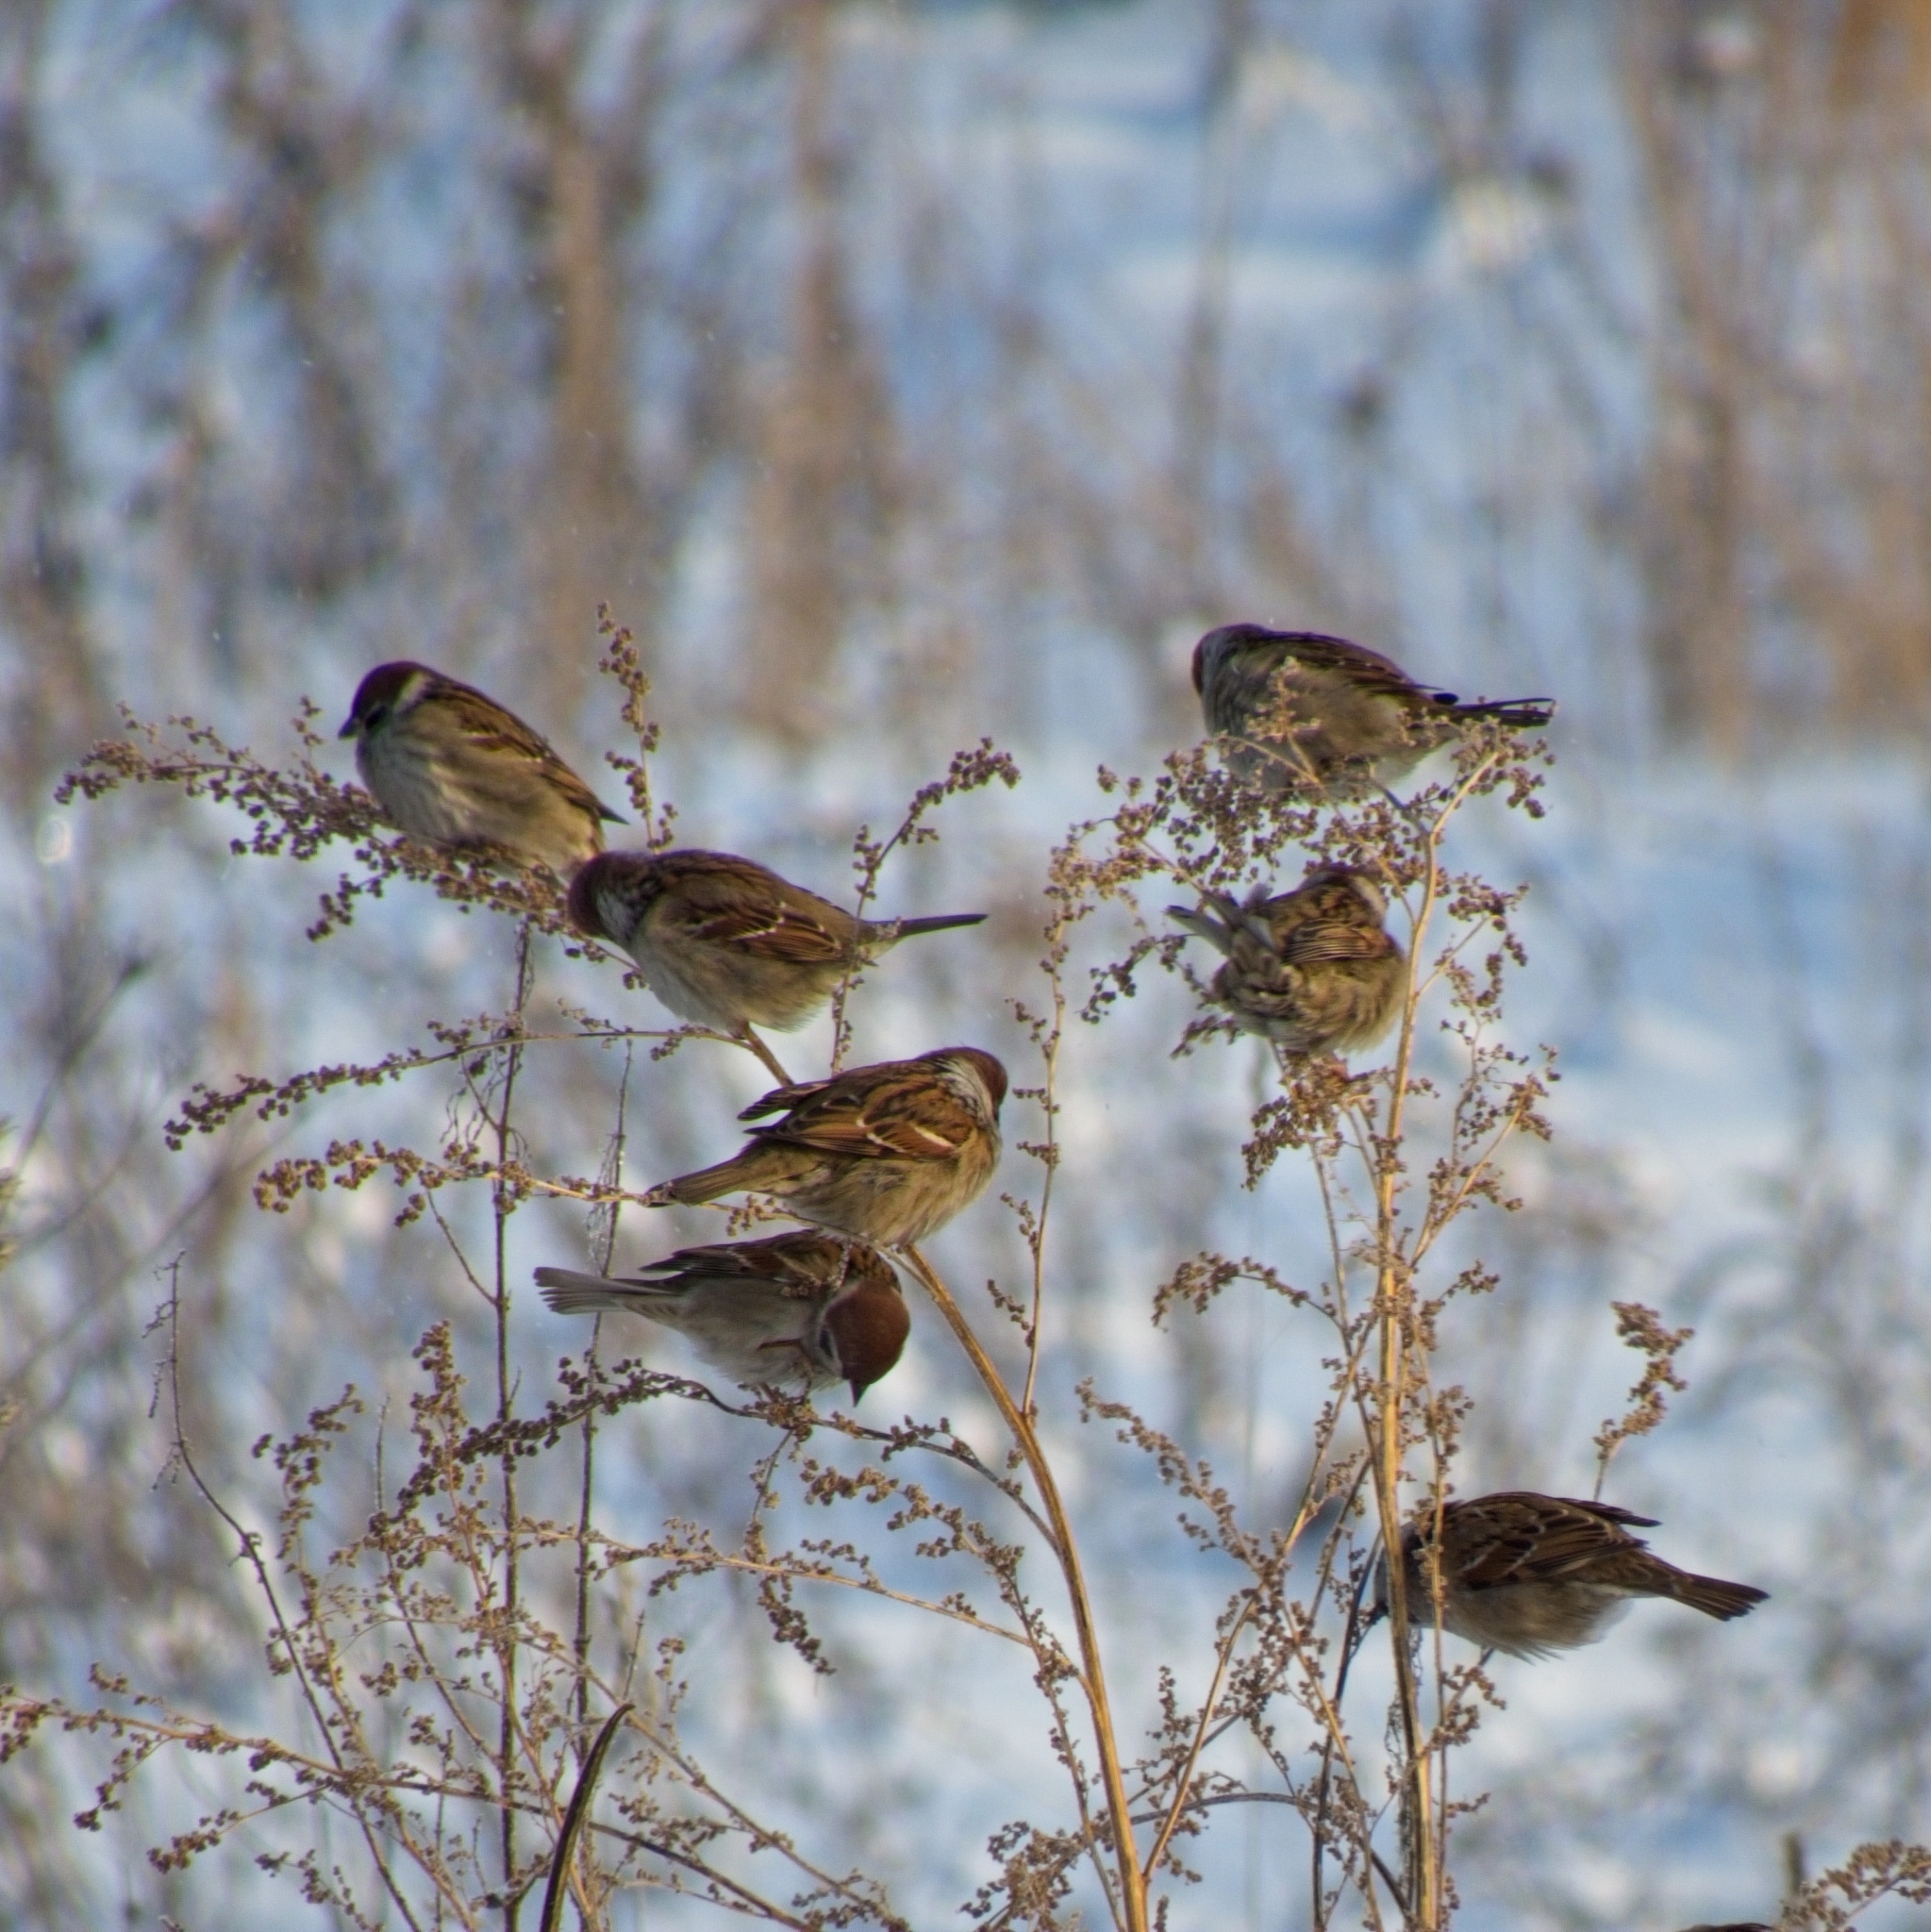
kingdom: Animalia
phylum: Chordata
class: Aves
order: Passeriformes
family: Passeridae
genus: Passer
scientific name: Passer montanus
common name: Eurasian tree sparrow
